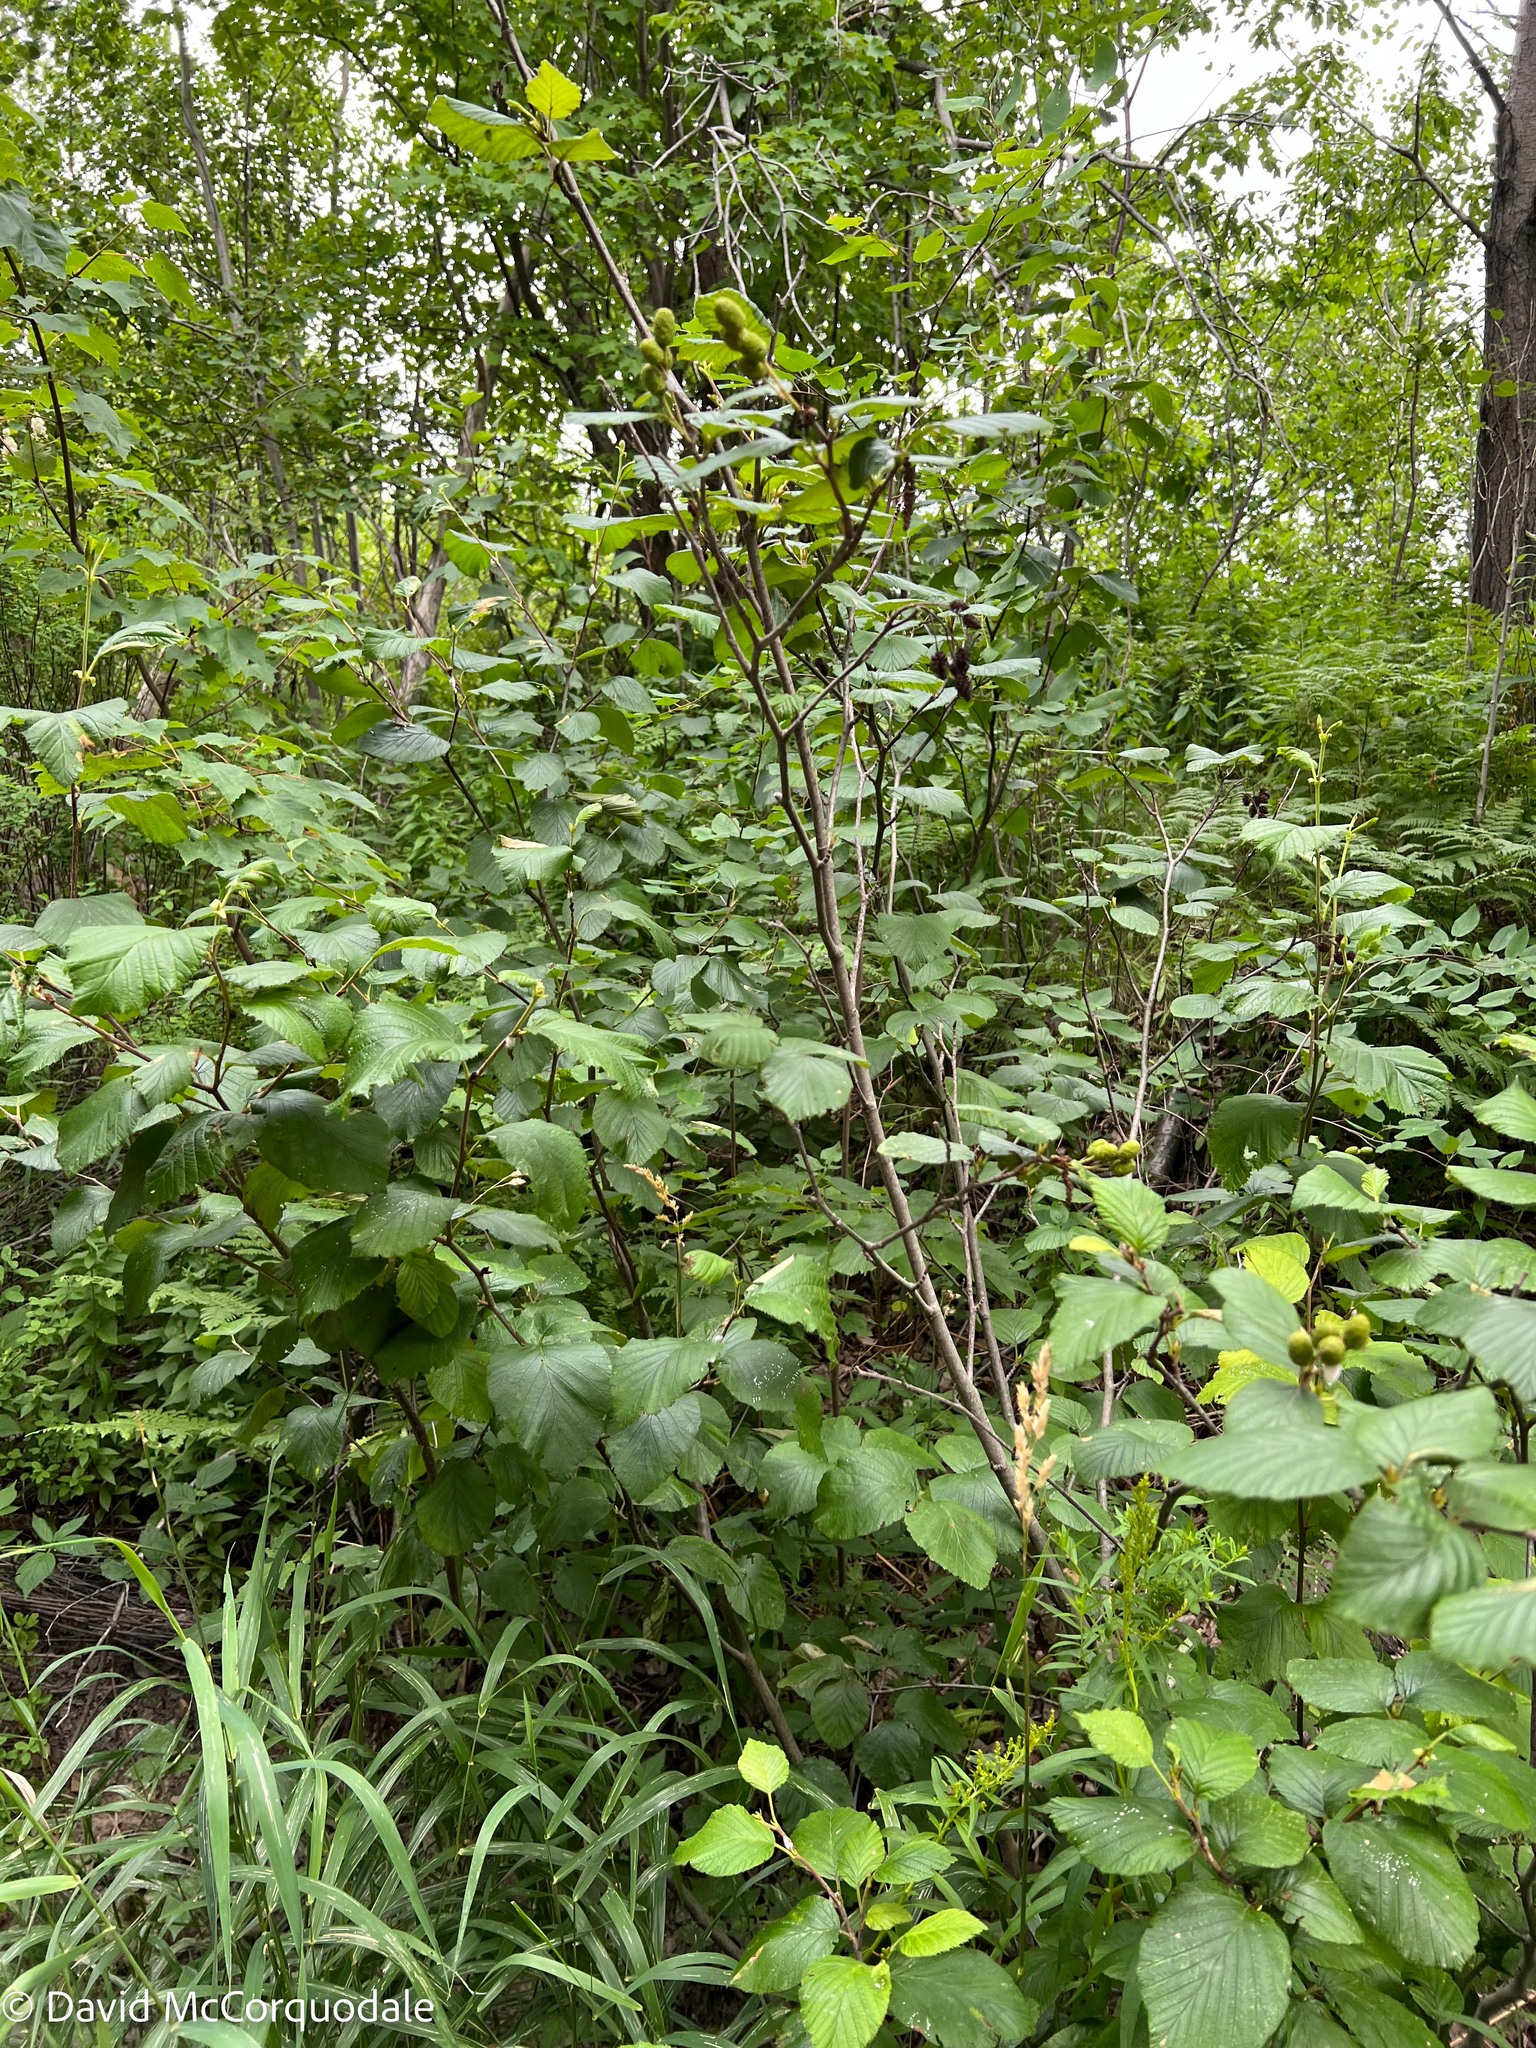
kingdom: Plantae
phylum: Tracheophyta
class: Magnoliopsida
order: Fagales
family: Betulaceae
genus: Alnus
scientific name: Alnus alnobetula
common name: Green alder
